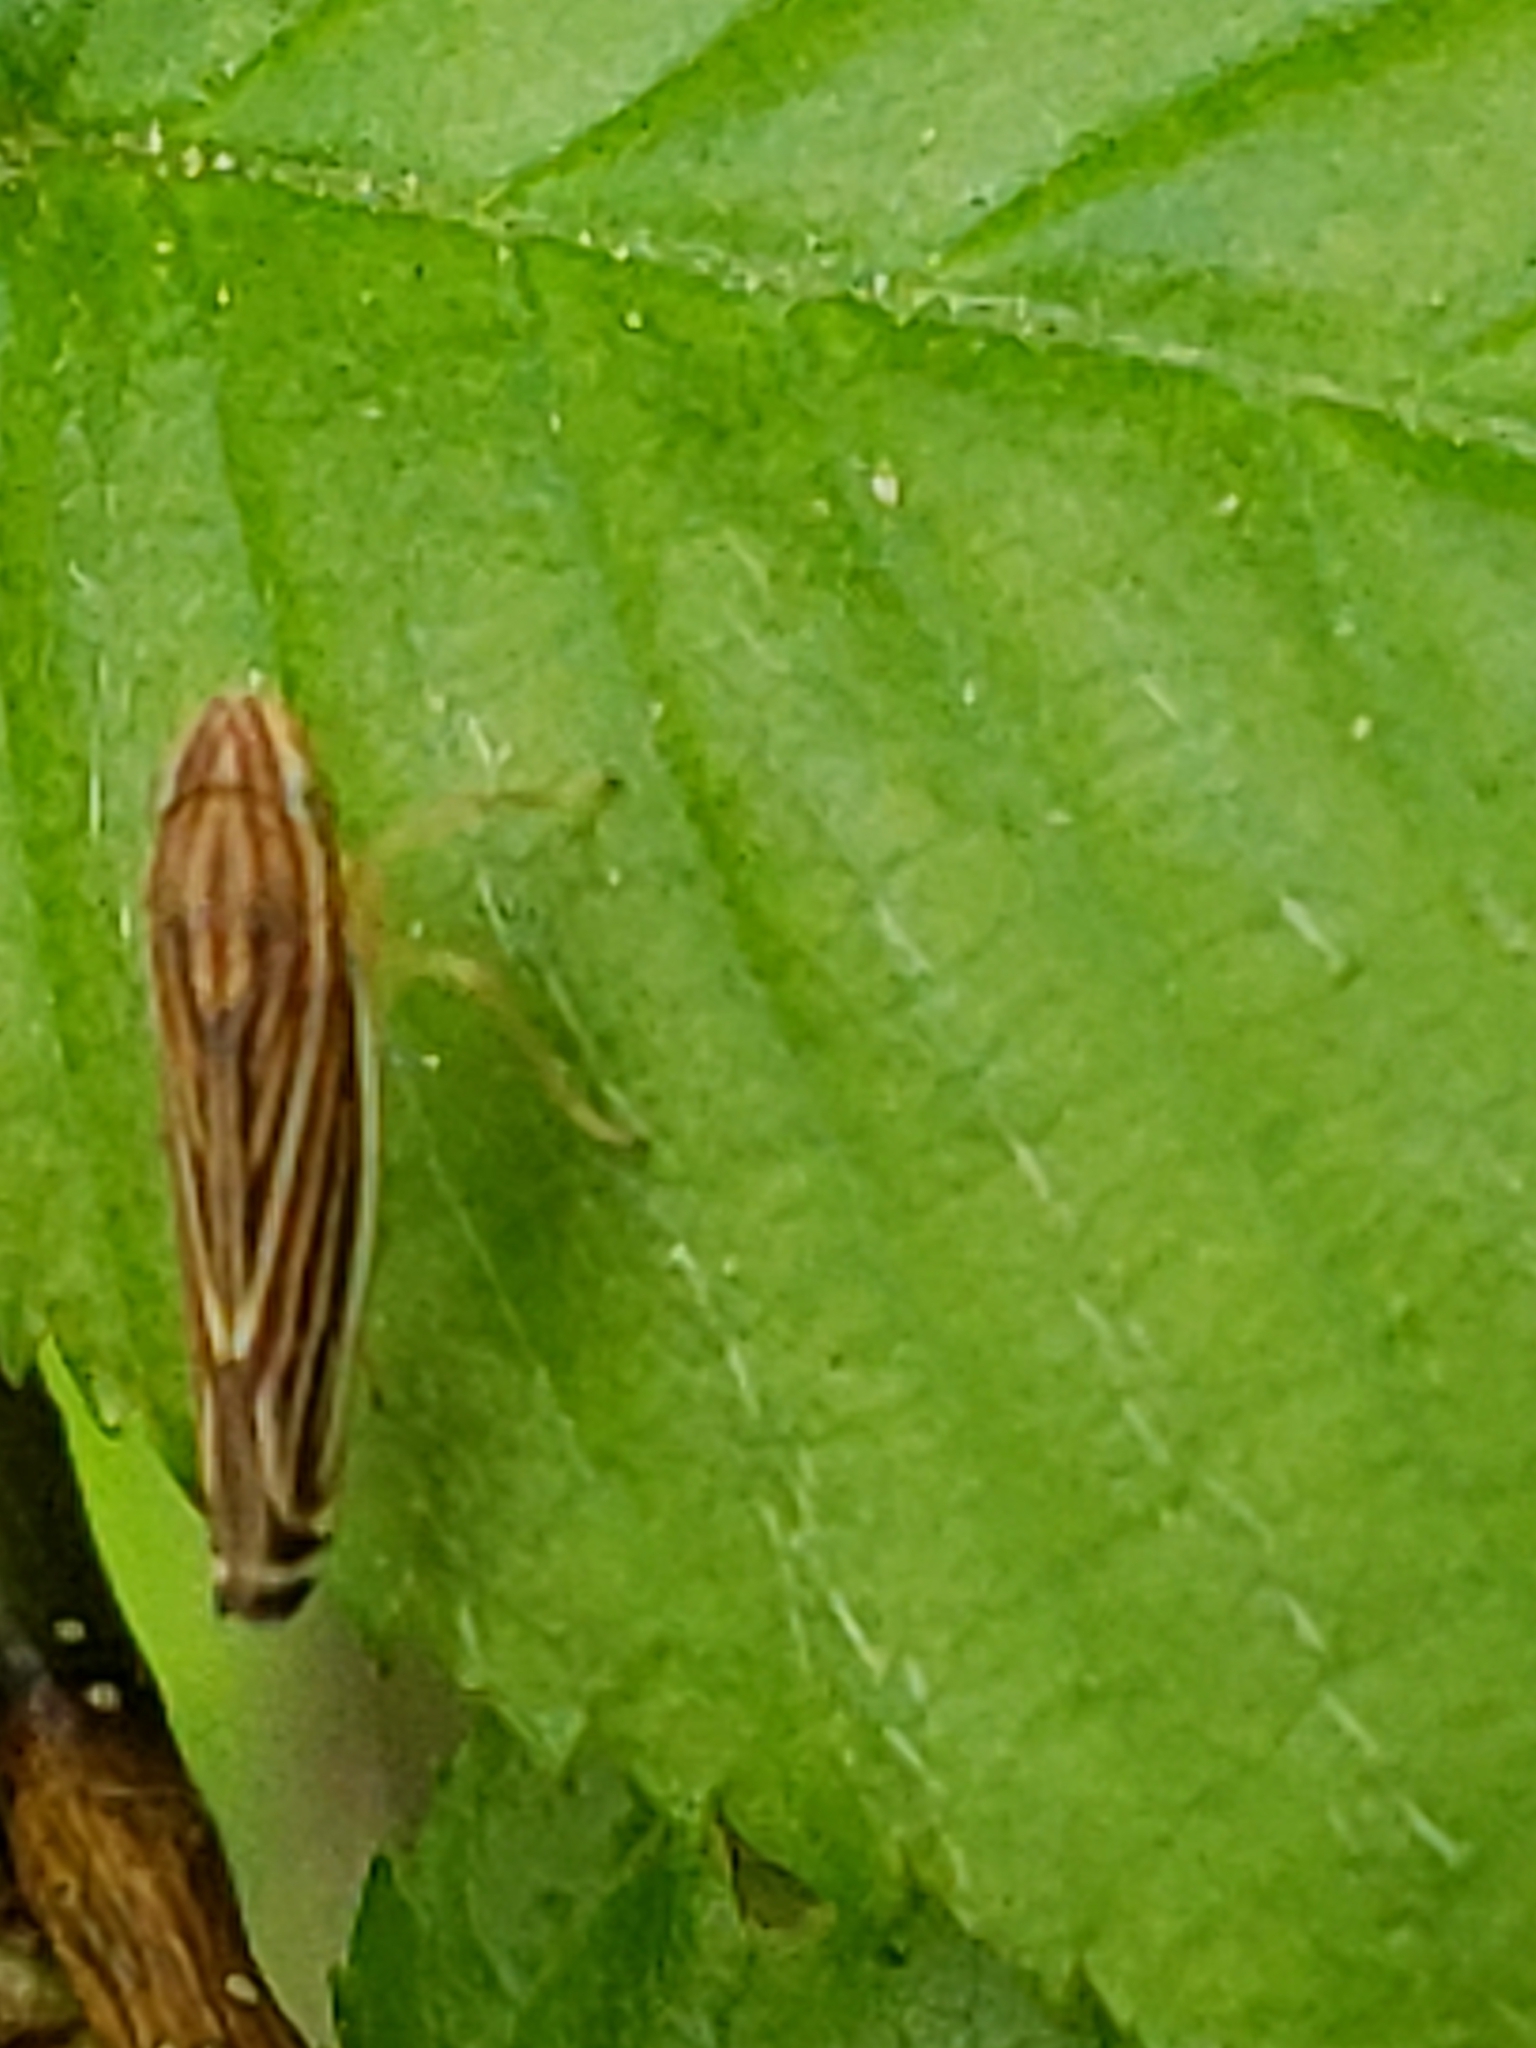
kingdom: Animalia
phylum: Arthropoda
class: Insecta
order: Hemiptera
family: Cicadellidae
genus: Sibovia
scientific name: Sibovia occatoria
